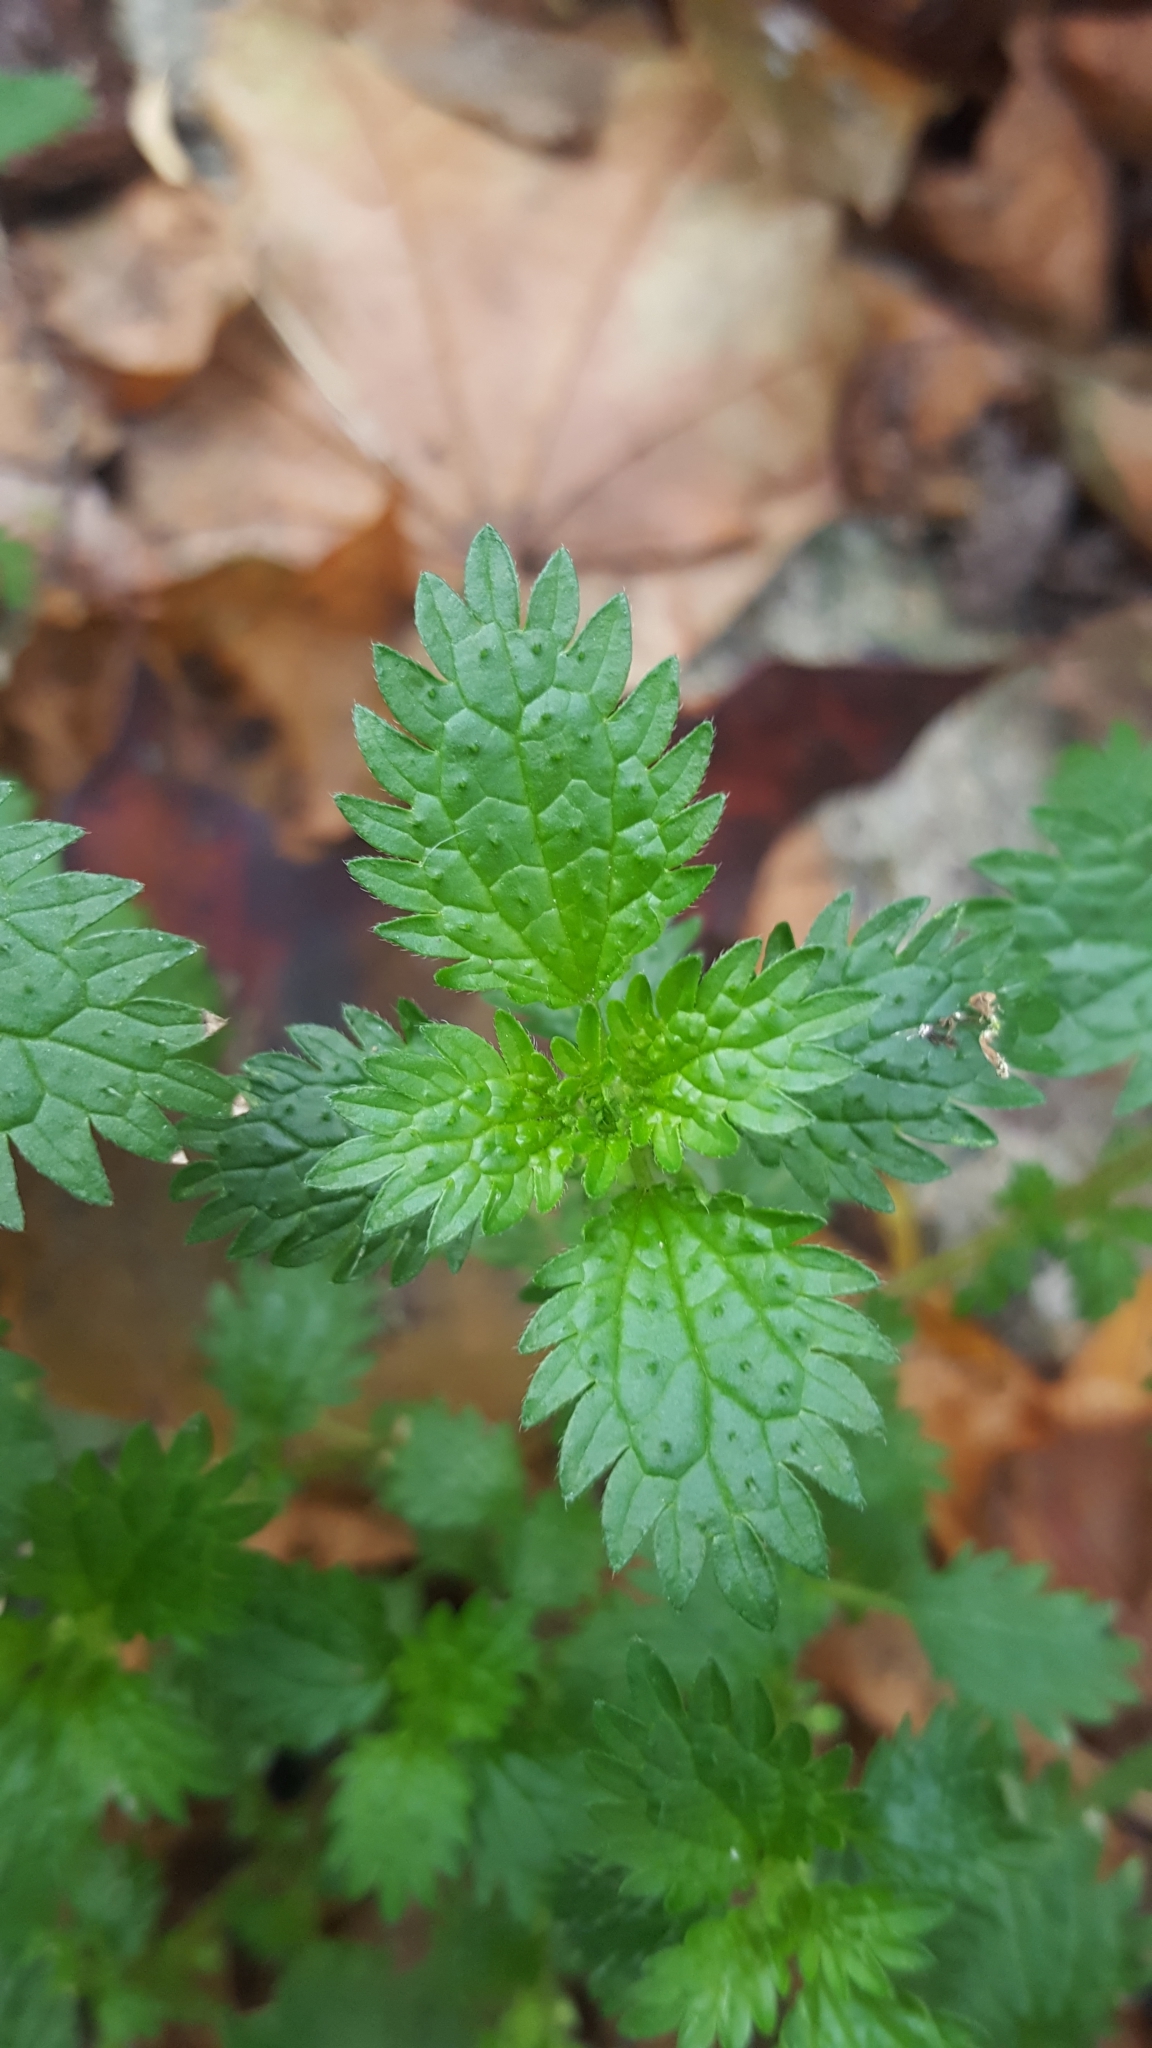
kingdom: Plantae
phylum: Tracheophyta
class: Magnoliopsida
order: Rosales
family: Urticaceae
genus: Urtica
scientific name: Urtica urens
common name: Dwarf nettle
